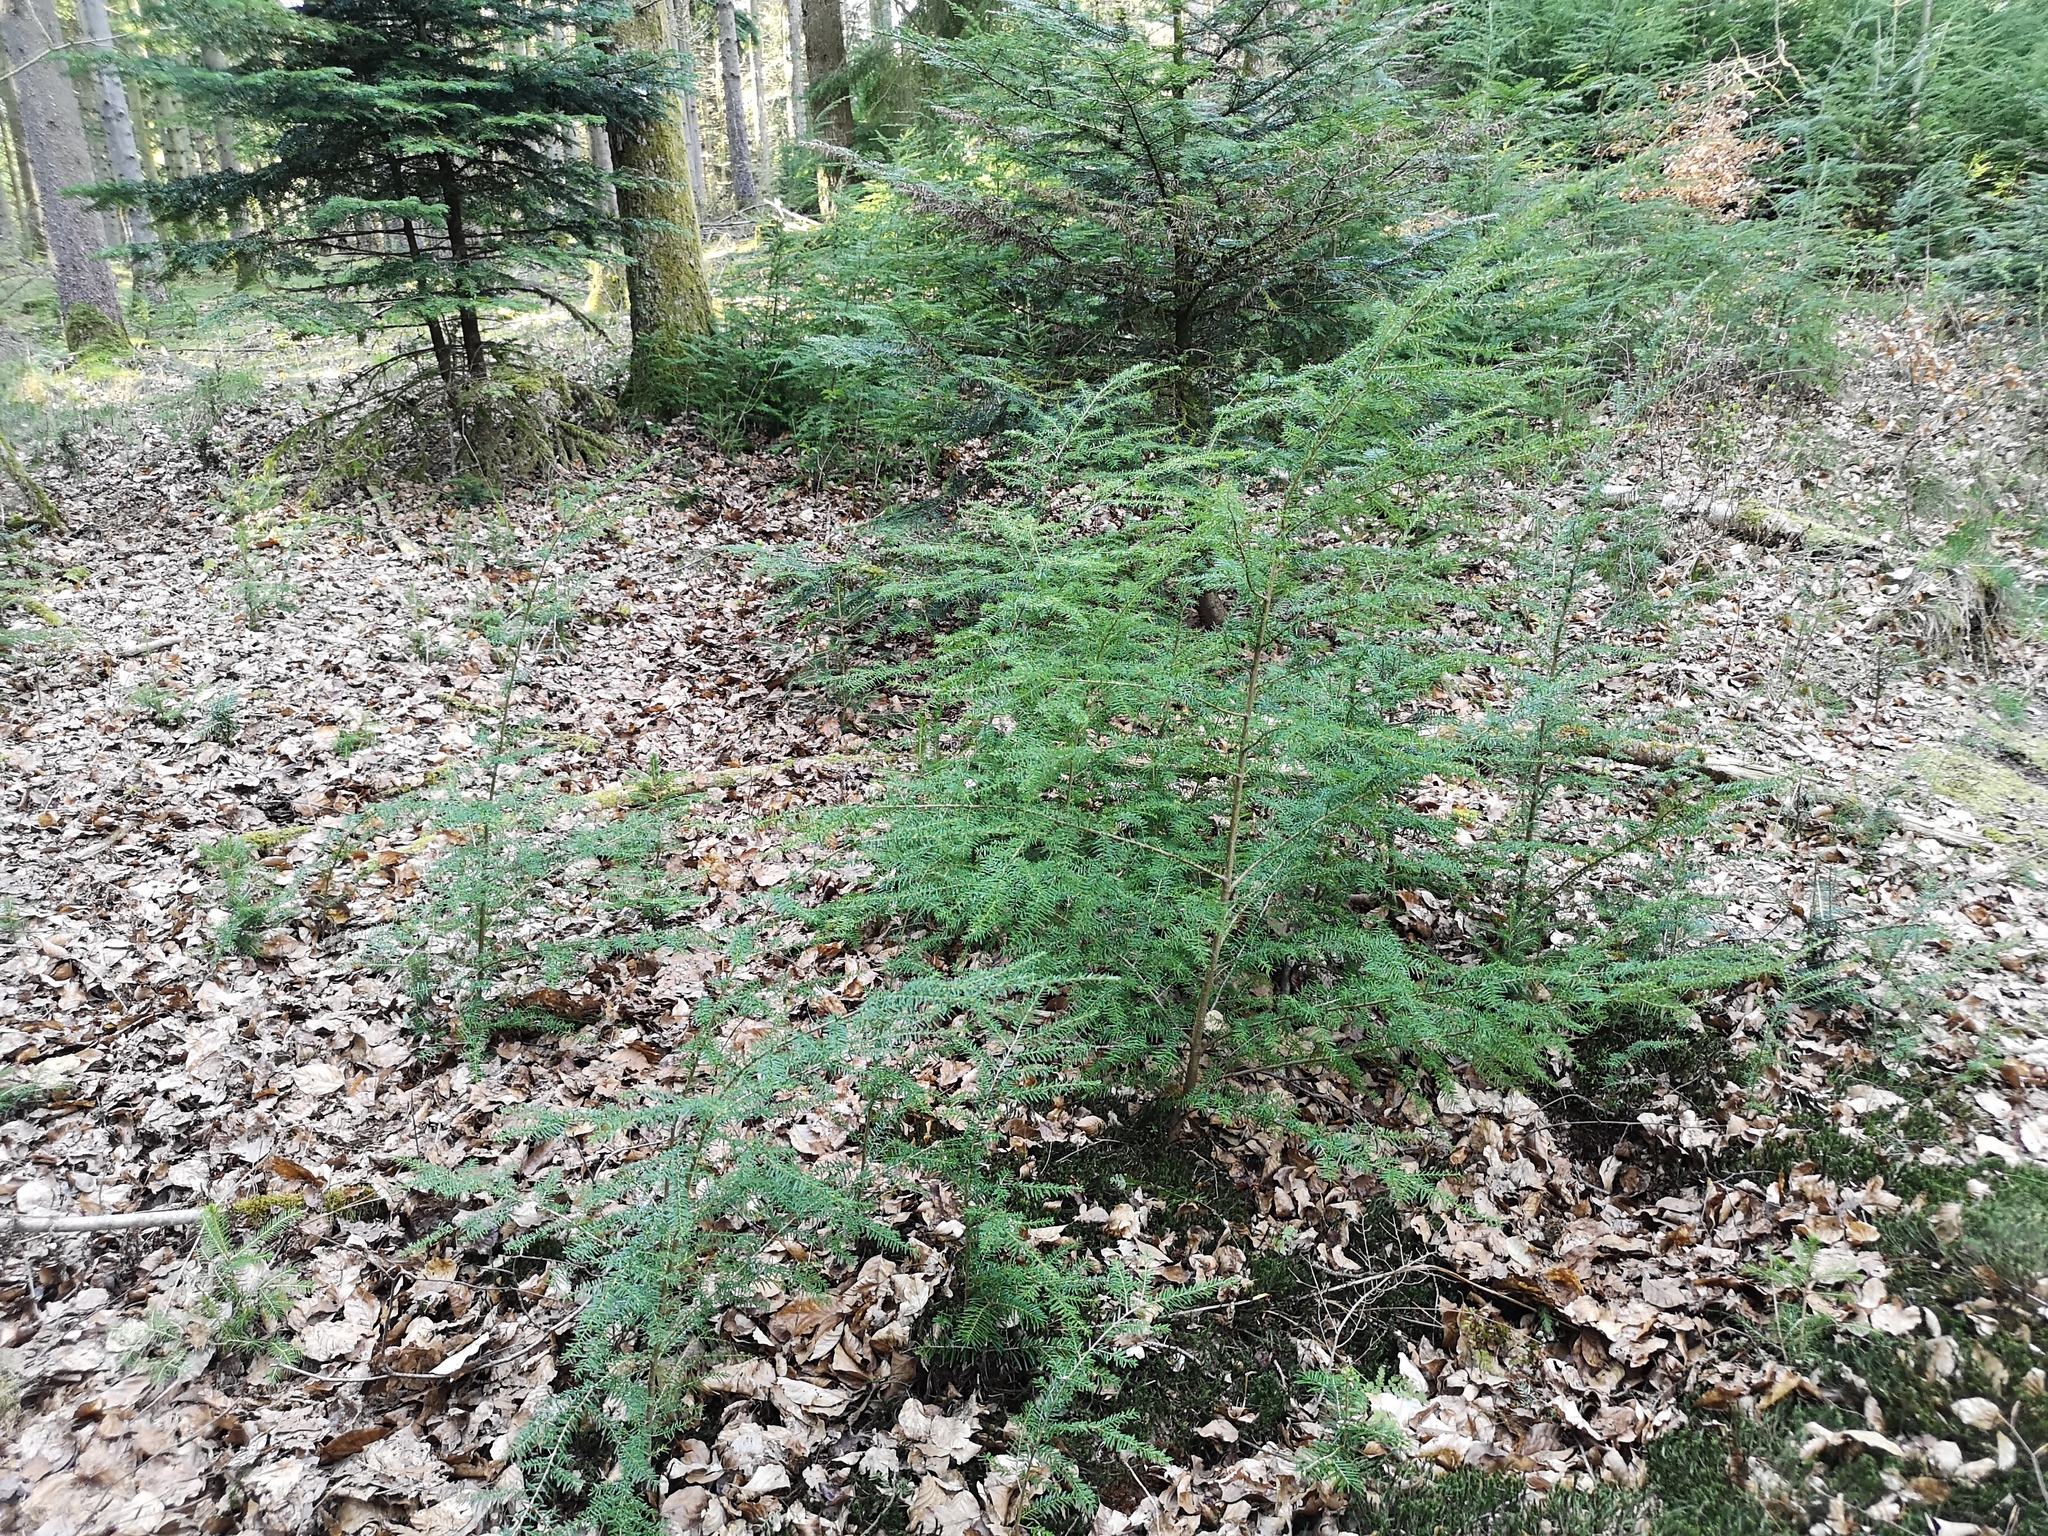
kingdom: Plantae
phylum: Tracheophyta
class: Pinopsida
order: Pinales
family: Pinaceae
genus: Tsuga
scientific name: Tsuga heterophylla
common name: Western hemlock
